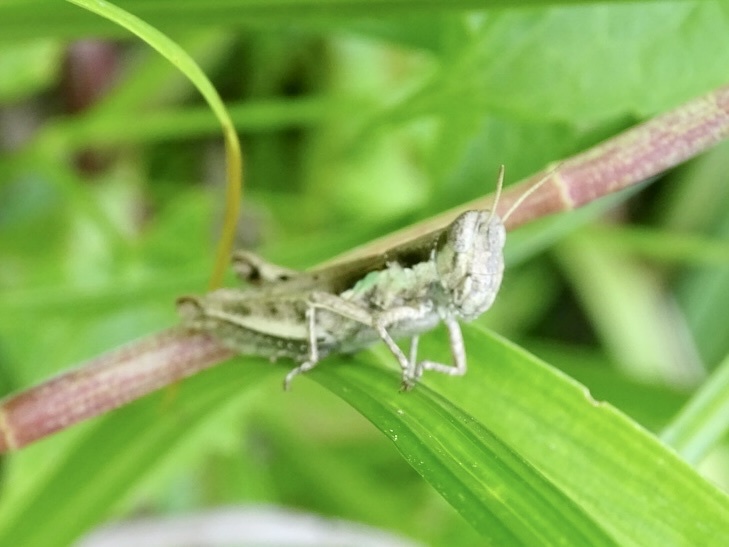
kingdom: Animalia
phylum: Arthropoda
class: Insecta
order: Orthoptera
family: Acrididae
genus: Pseudoxya
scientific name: Pseudoxya diminuta
